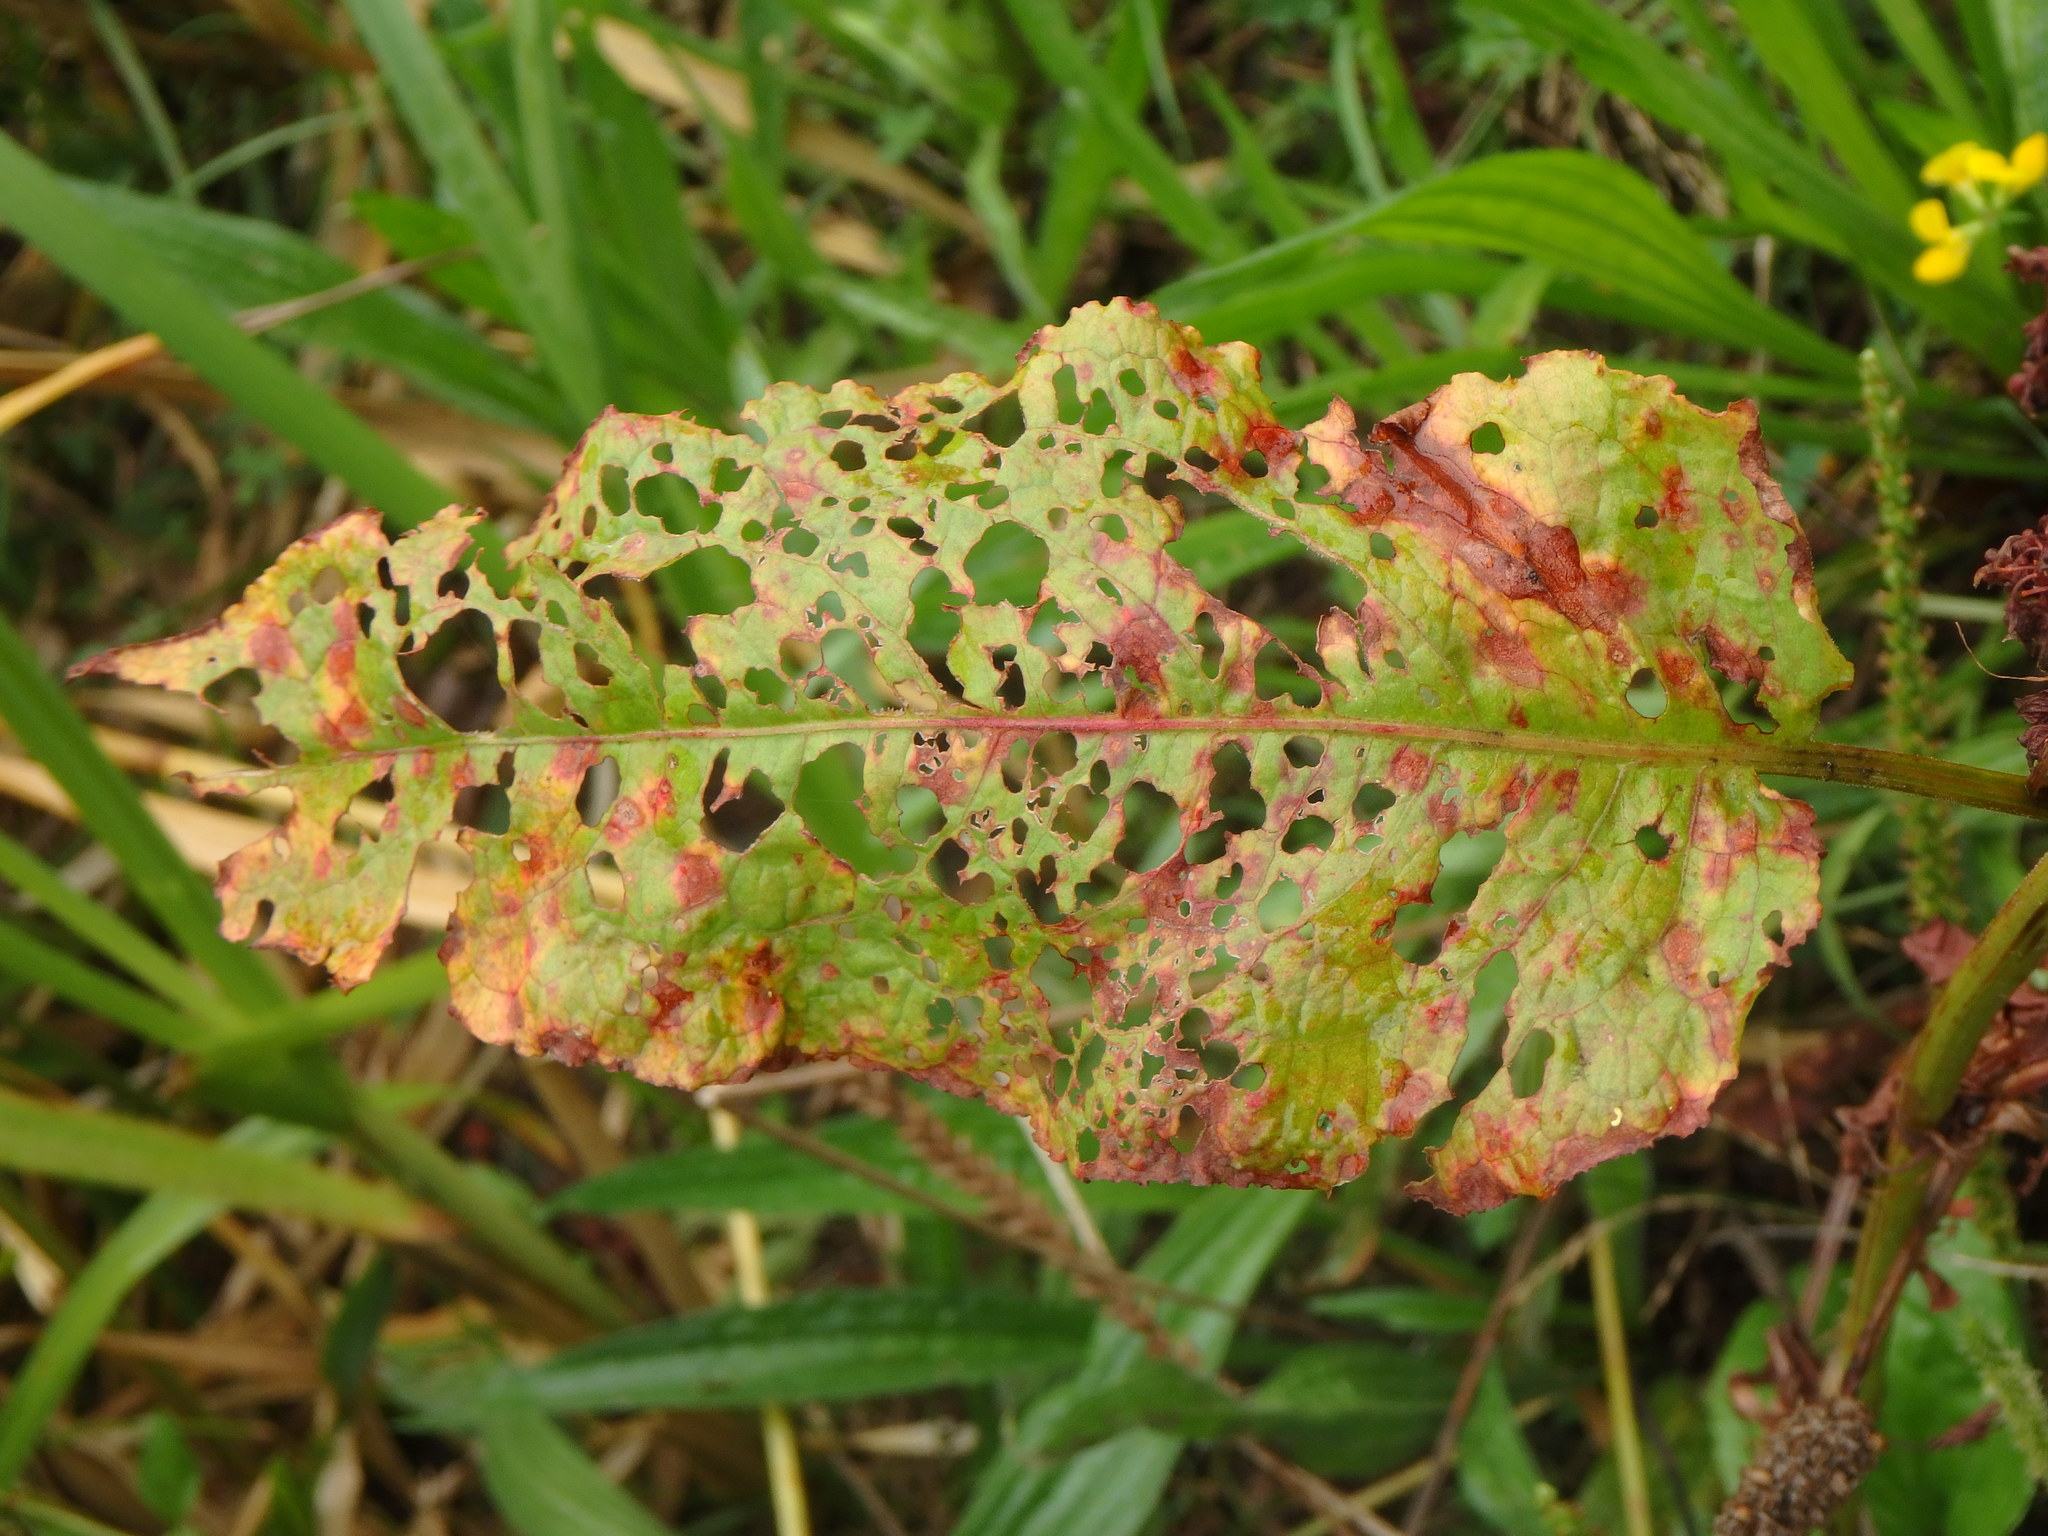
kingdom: Plantae
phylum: Tracheophyta
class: Magnoliopsida
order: Caryophyllales
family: Polygonaceae
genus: Rumex
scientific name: Rumex obtusifolius
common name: Bitter dock
